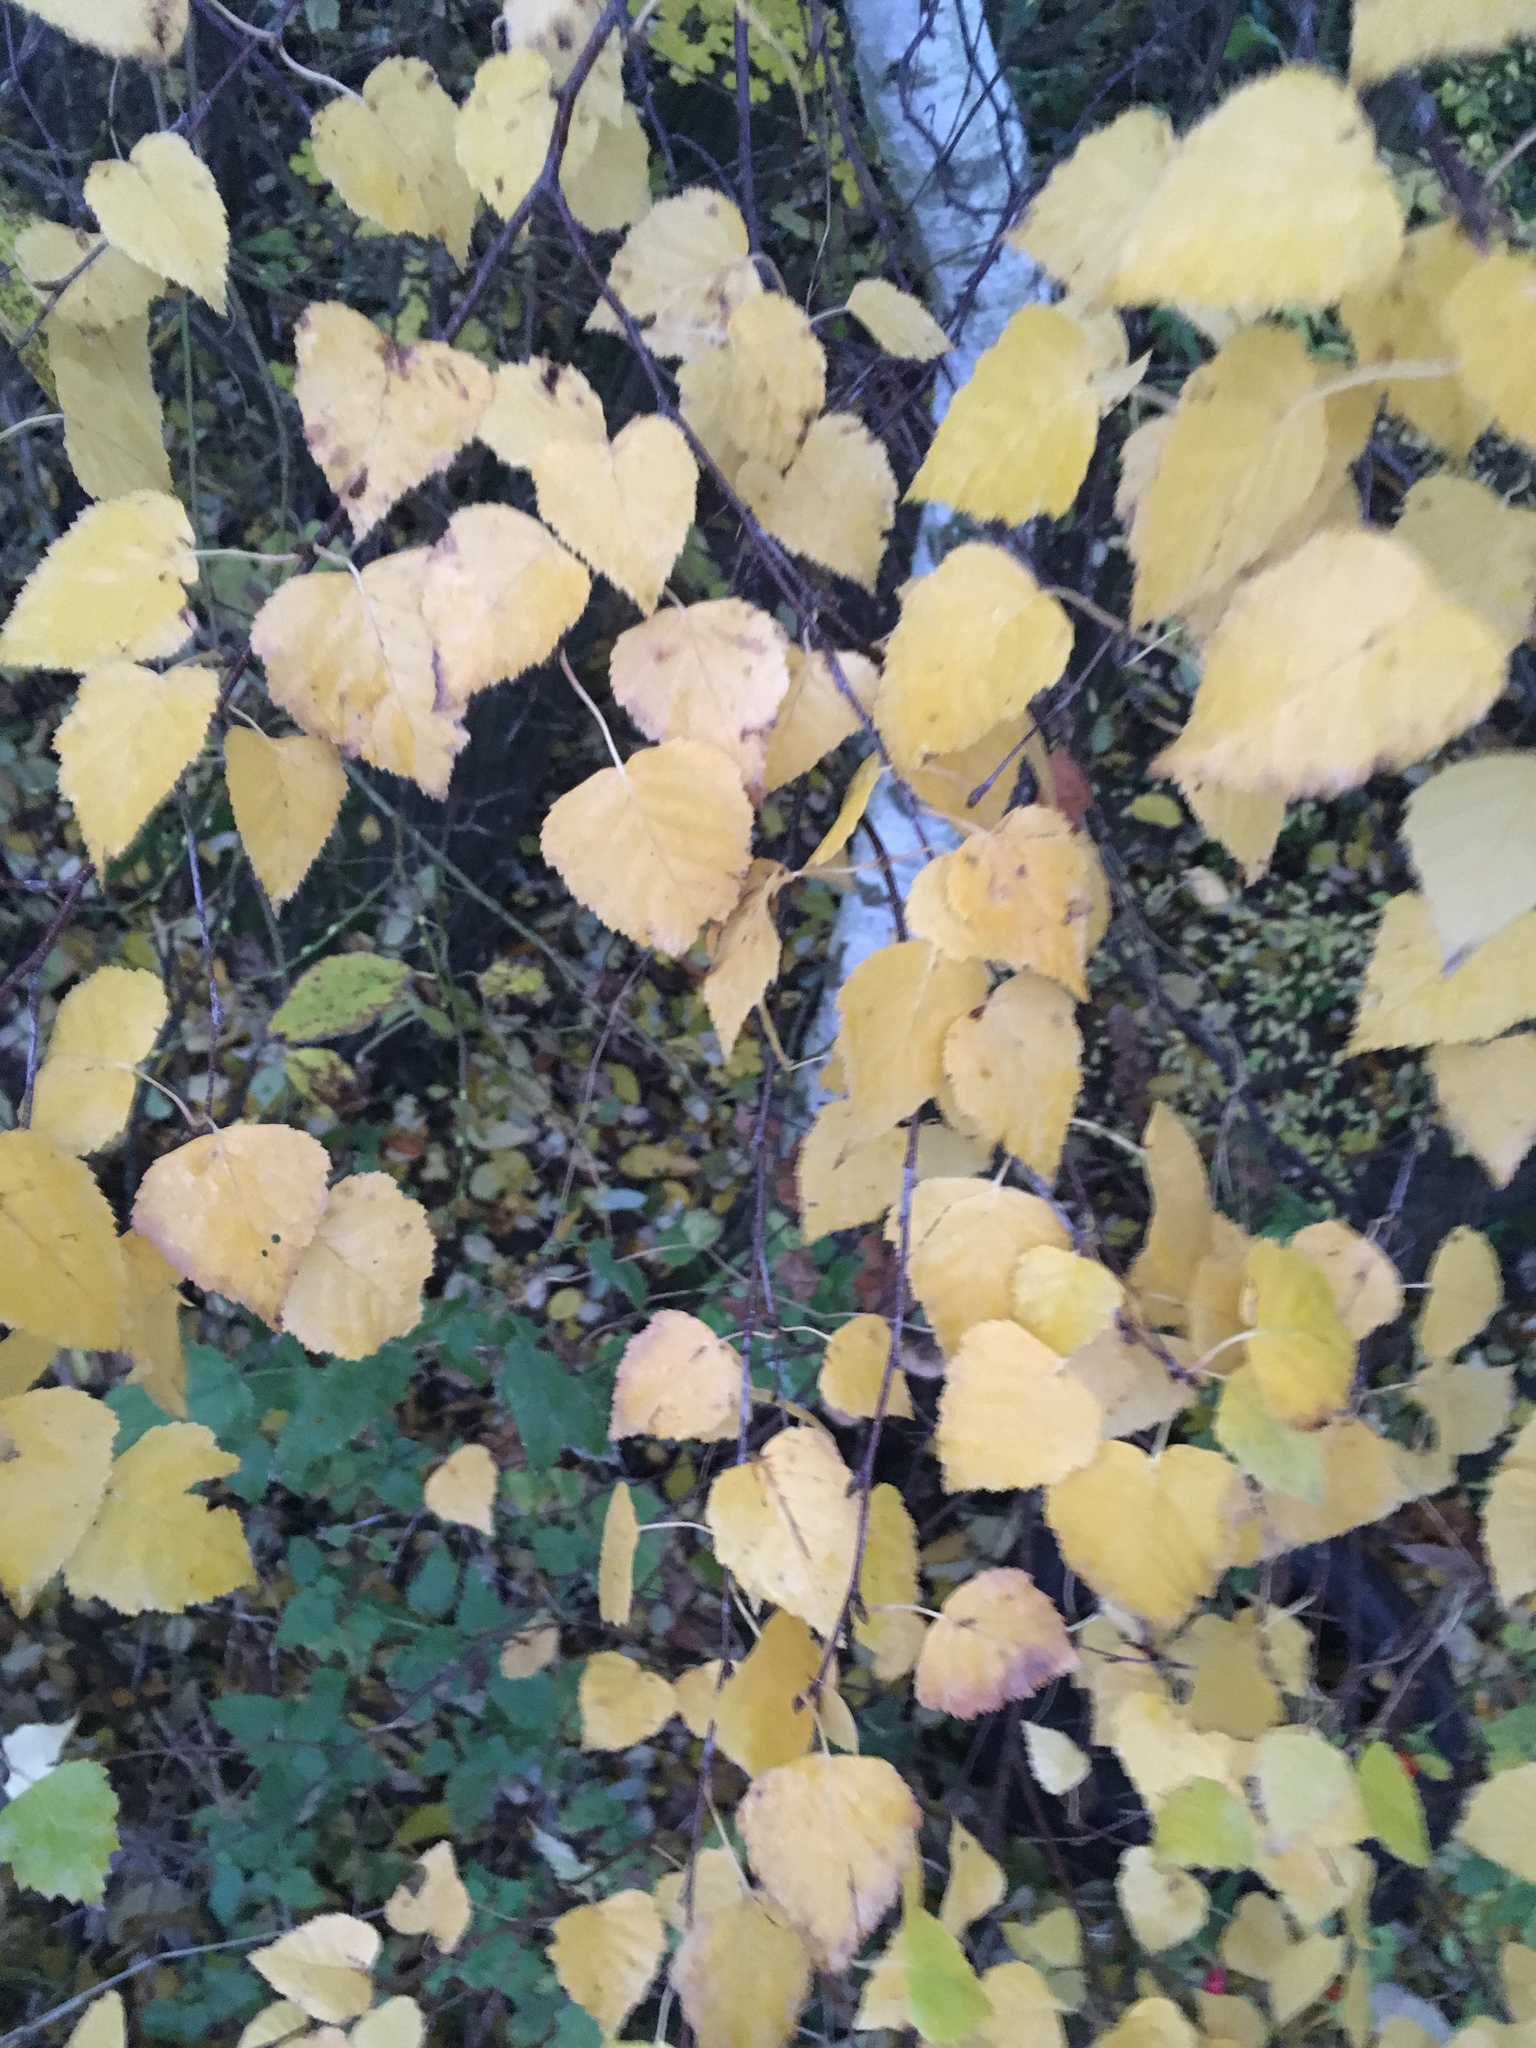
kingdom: Plantae
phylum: Tracheophyta
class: Magnoliopsida
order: Fagales
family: Betulaceae
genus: Betula
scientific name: Betula pendula
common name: Silver birch
